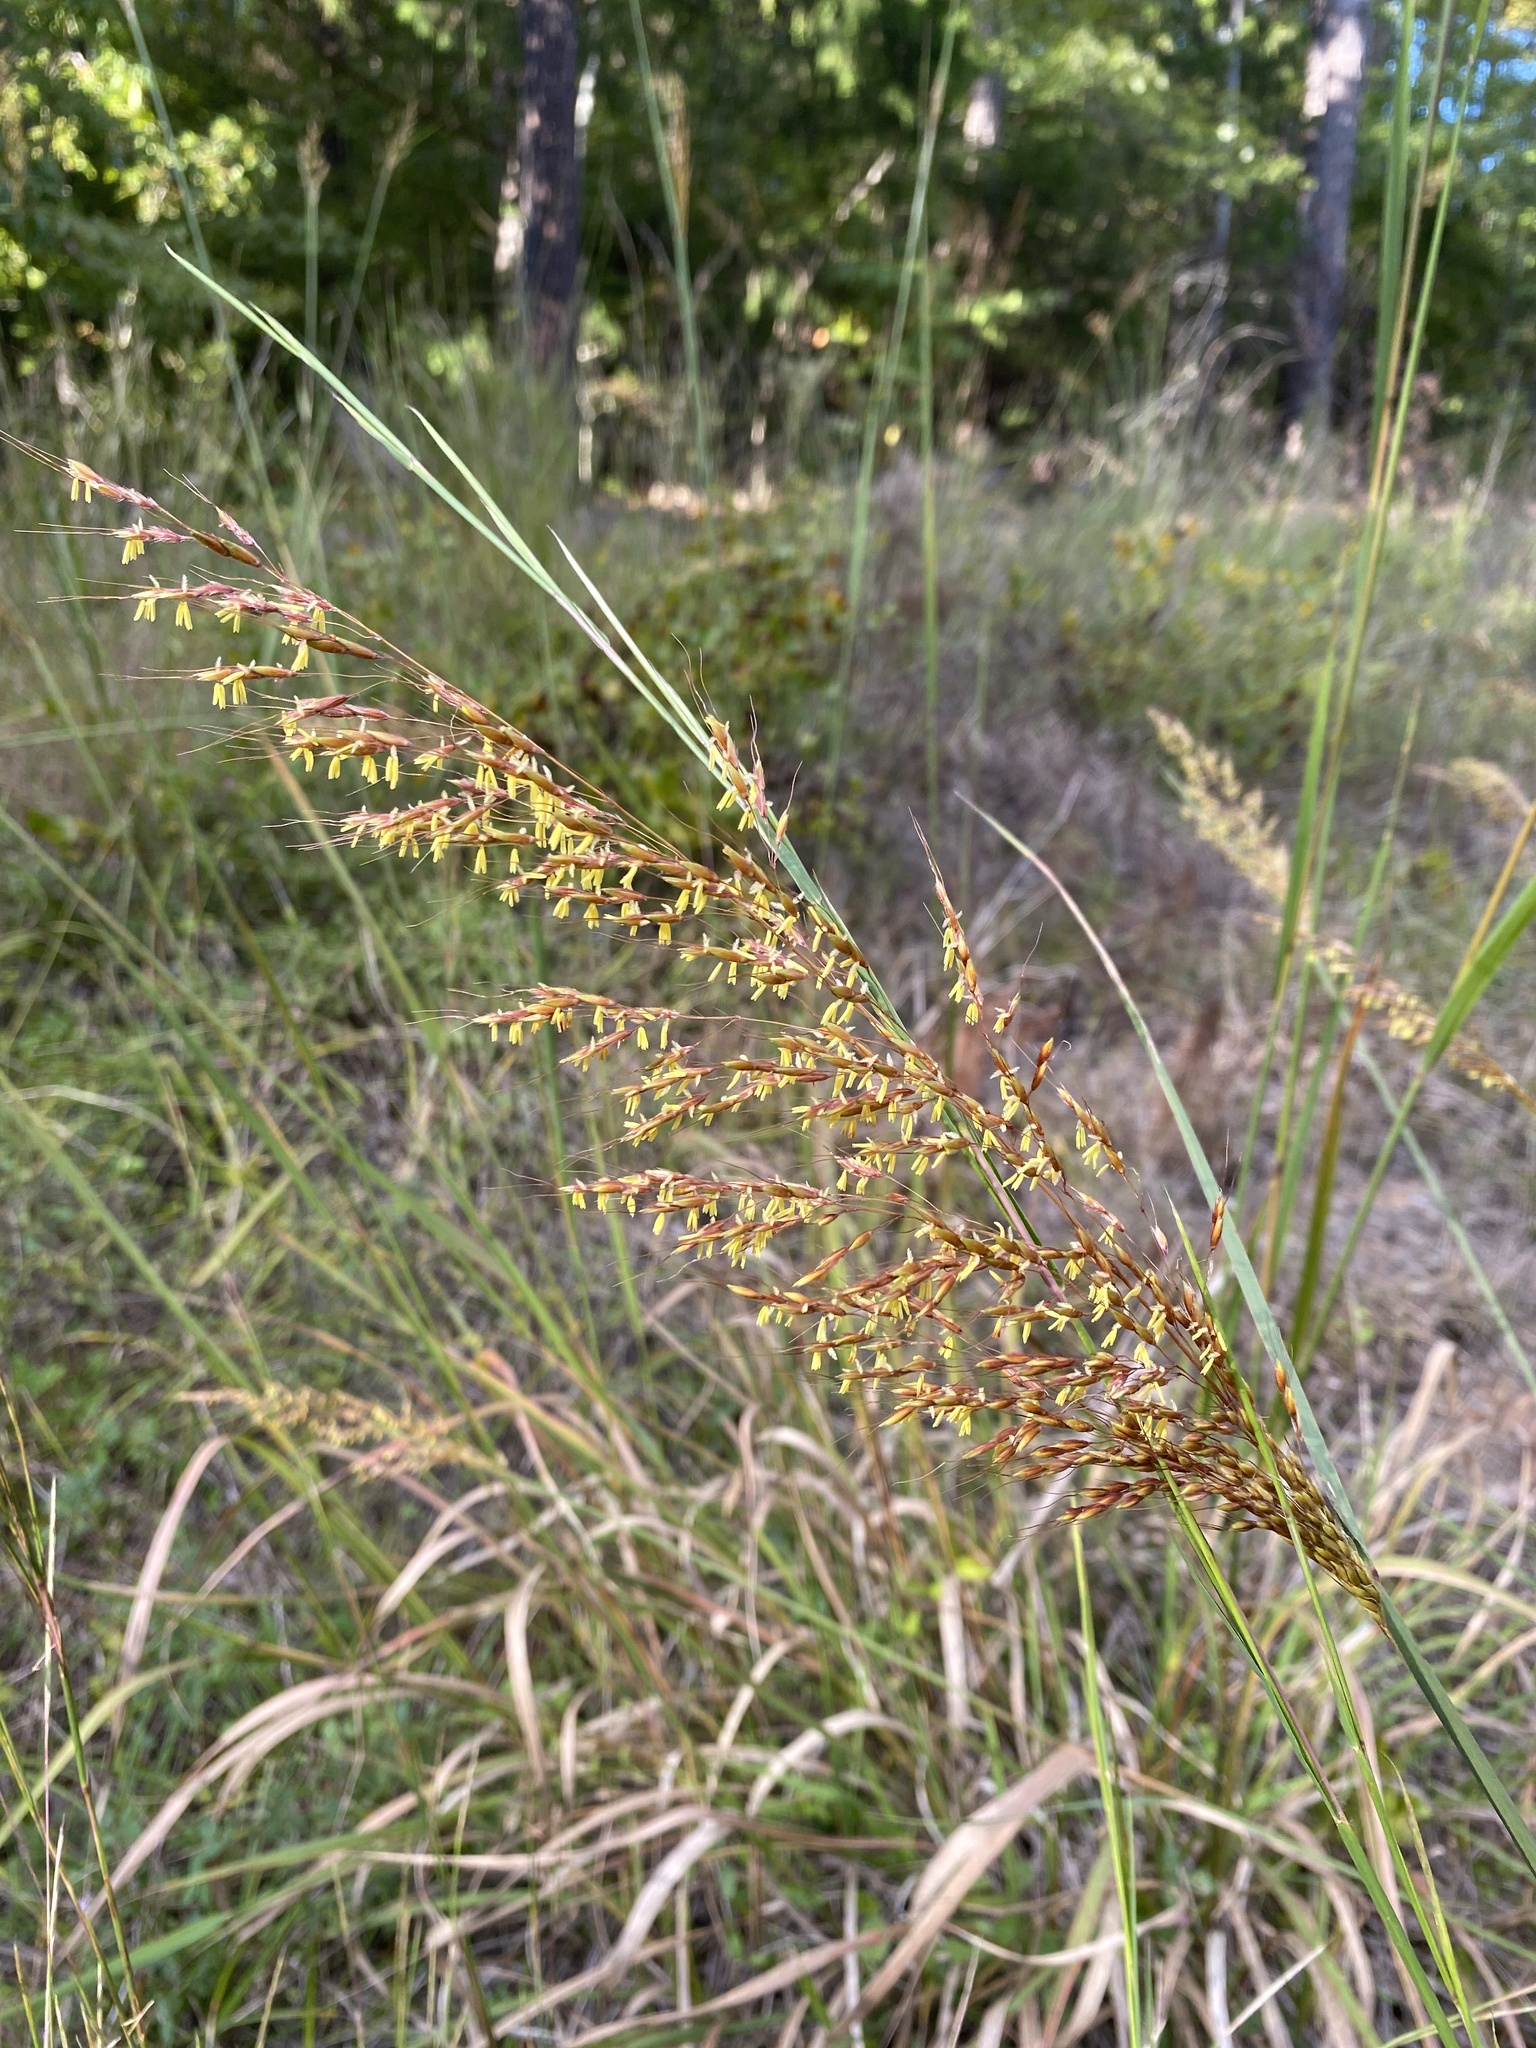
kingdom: Plantae
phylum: Tracheophyta
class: Liliopsida
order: Poales
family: Poaceae
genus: Sorghastrum
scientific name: Sorghastrum nutans
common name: Indian grass
